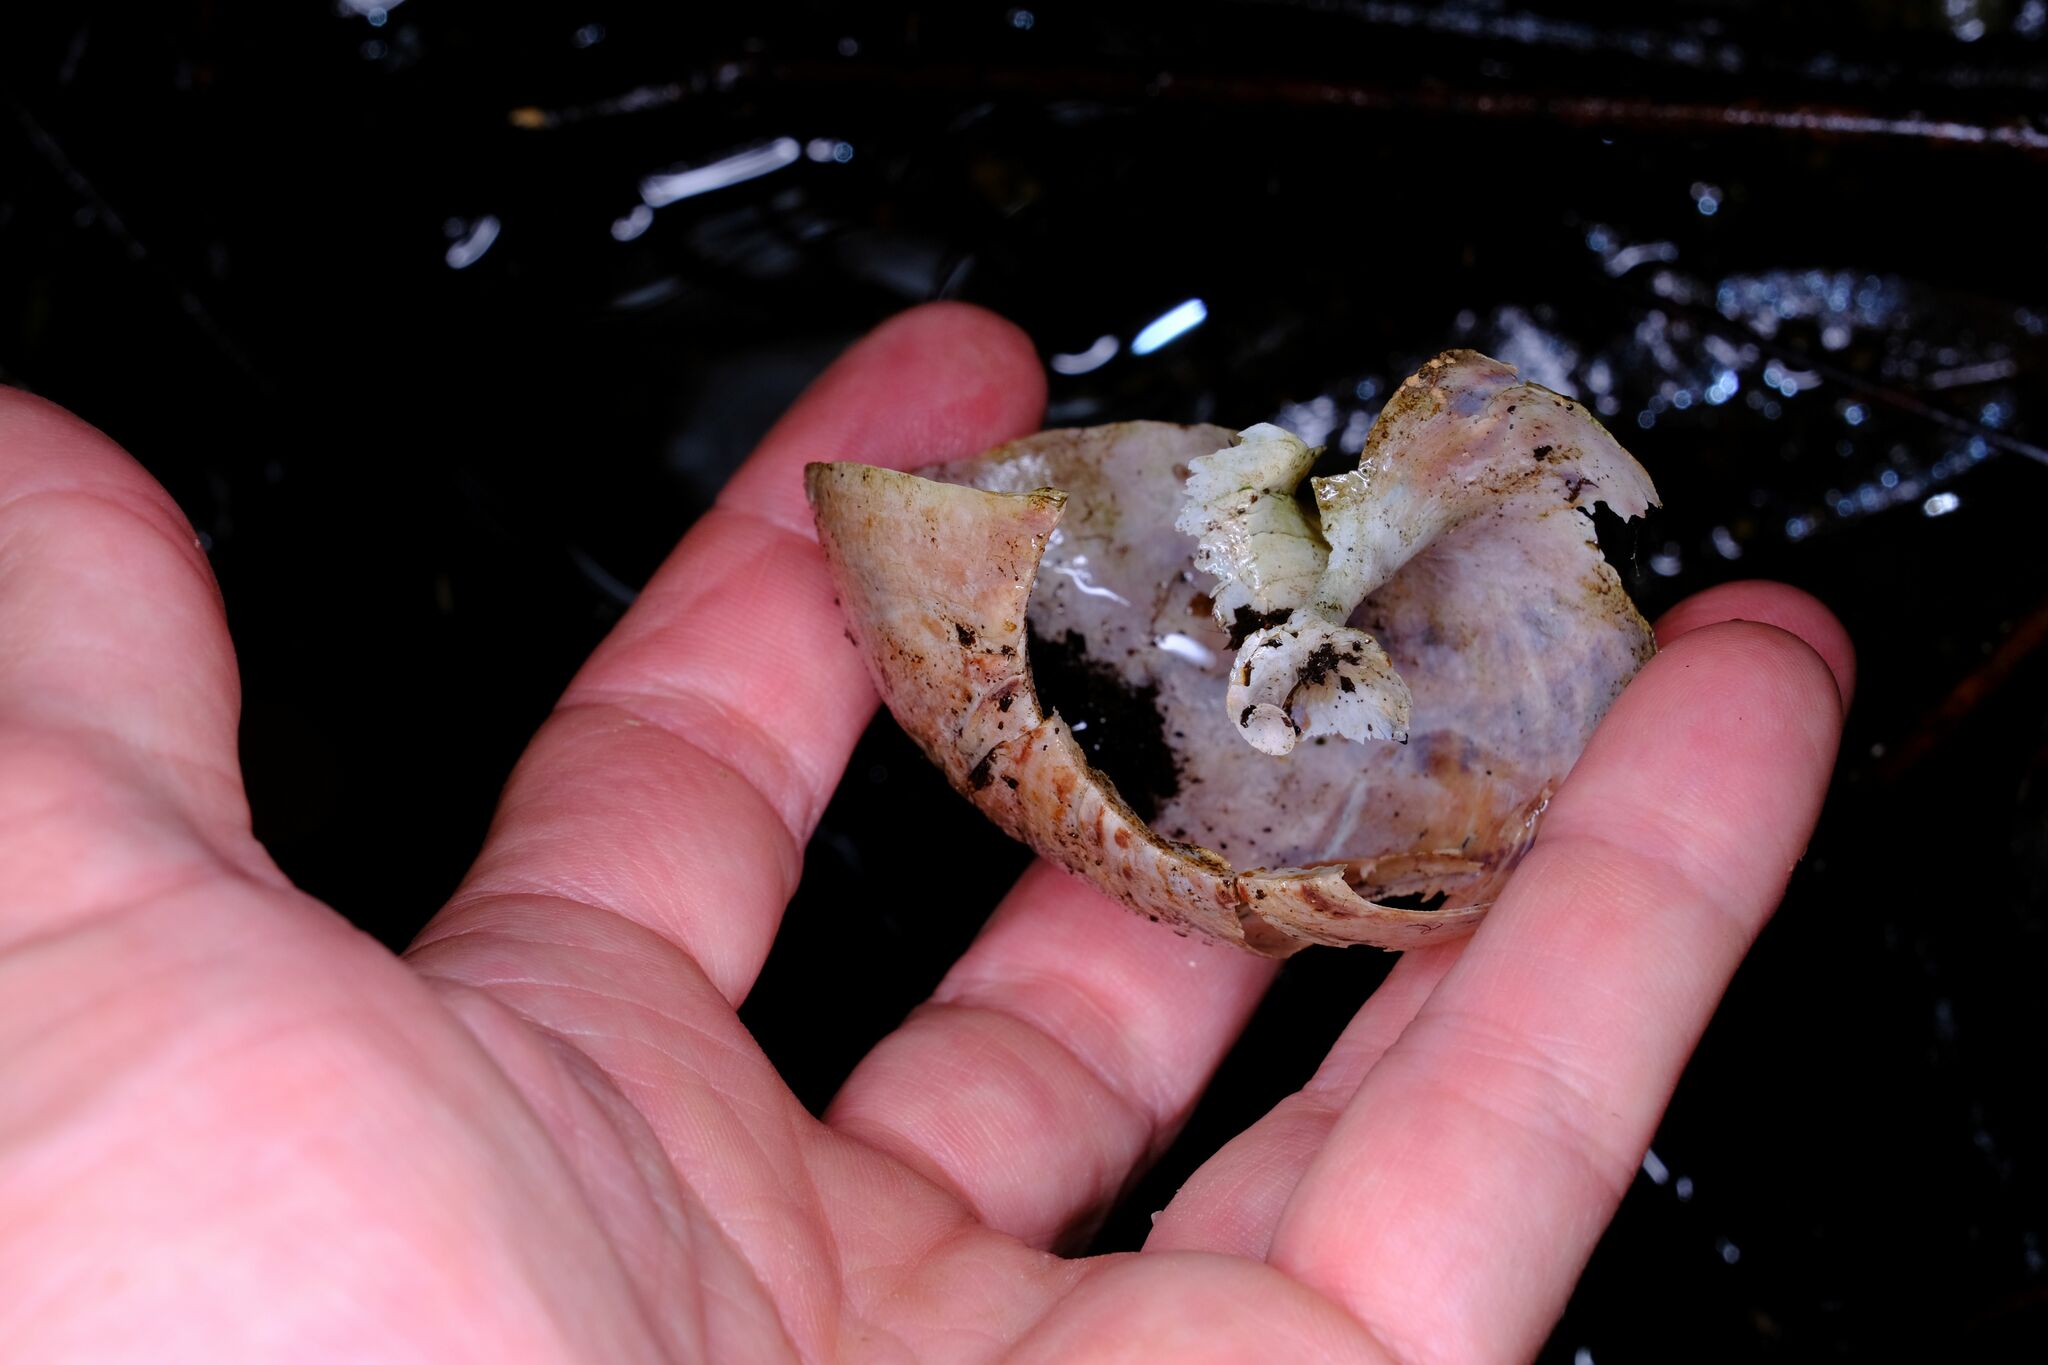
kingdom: Animalia
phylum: Mollusca
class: Gastropoda
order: Stylommatophora
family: Caryodidae
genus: Hedleyella
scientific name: Hedleyella falconeri
